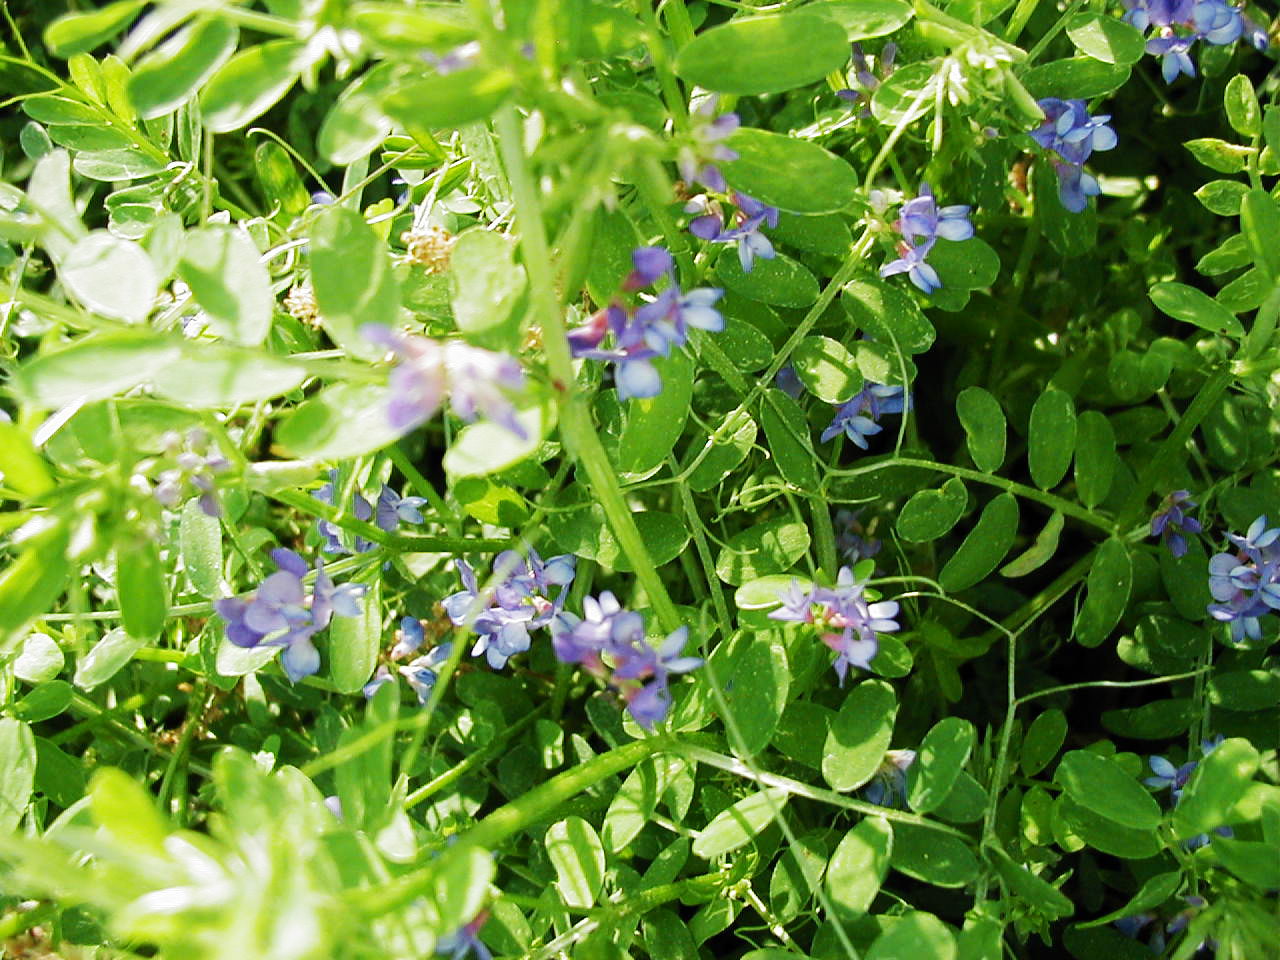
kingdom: Plantae
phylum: Tracheophyta
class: Magnoliopsida
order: Fabales
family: Fabaceae
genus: Vicia
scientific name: Vicia ludoviciana
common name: Louisiana vetch
